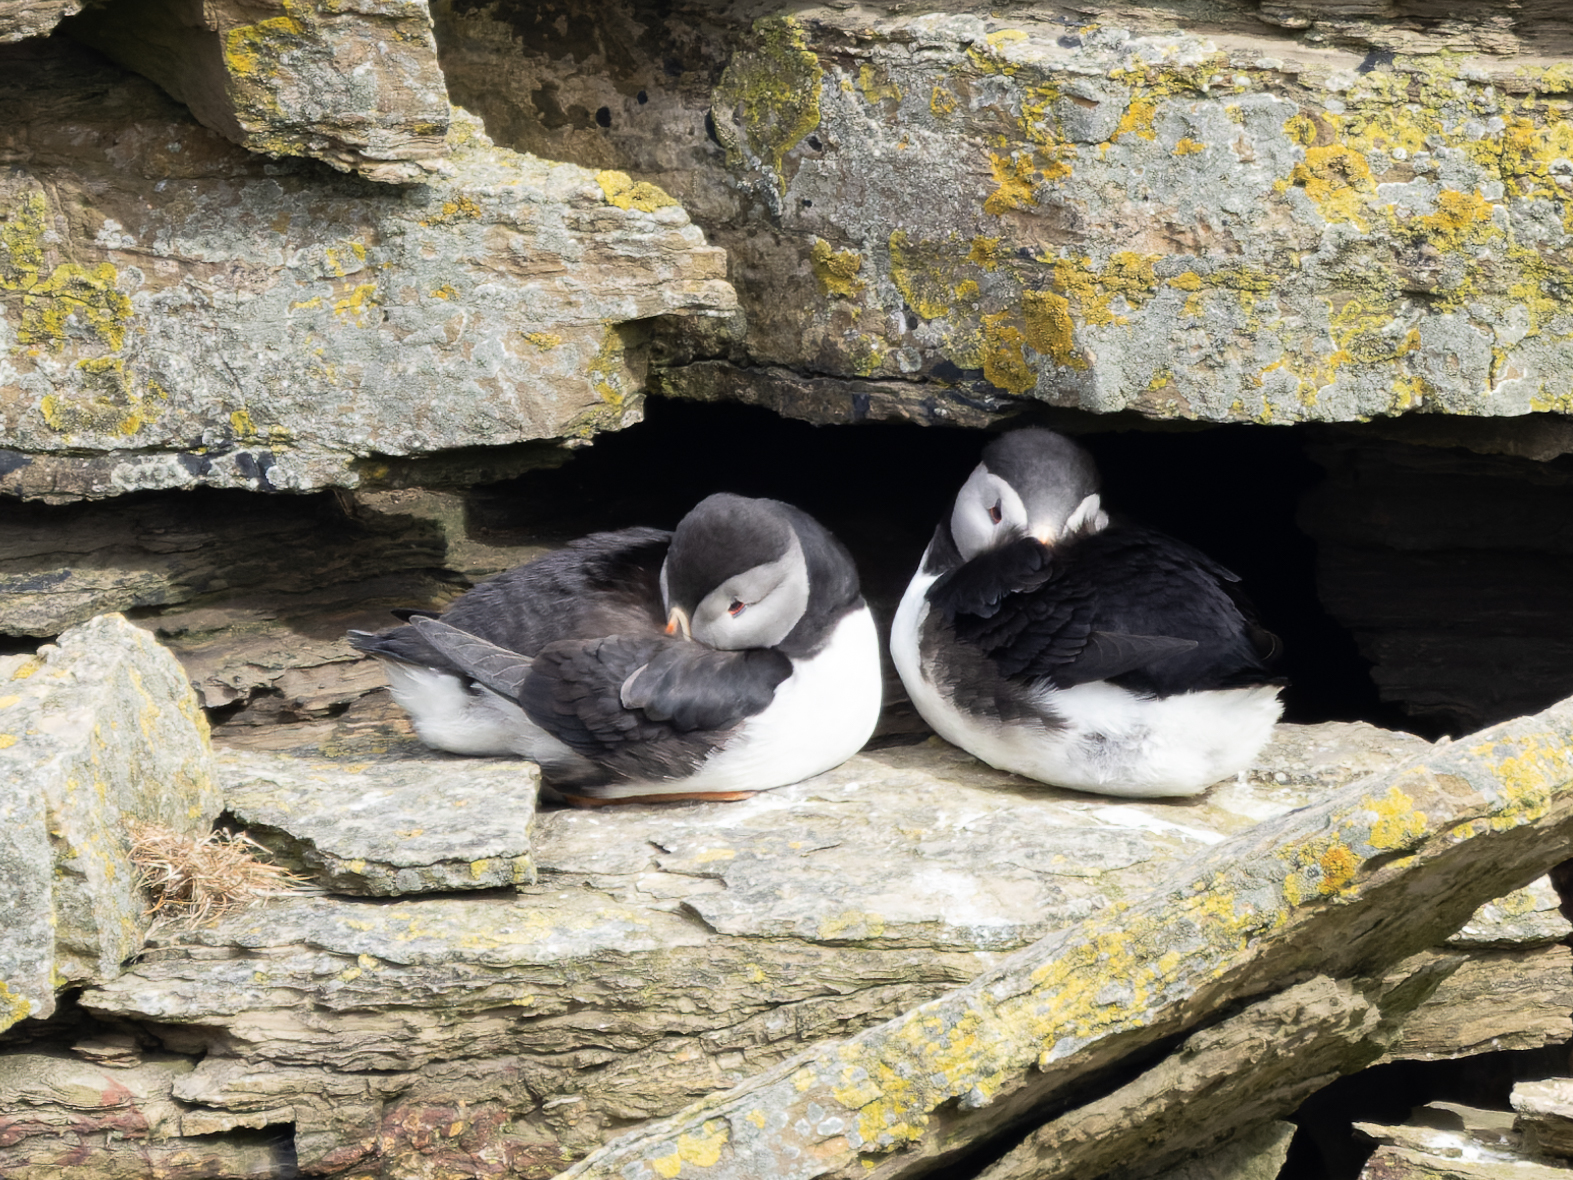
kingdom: Animalia
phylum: Chordata
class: Aves
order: Charadriiformes
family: Alcidae
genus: Fratercula
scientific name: Fratercula arctica
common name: Atlantic puffin
